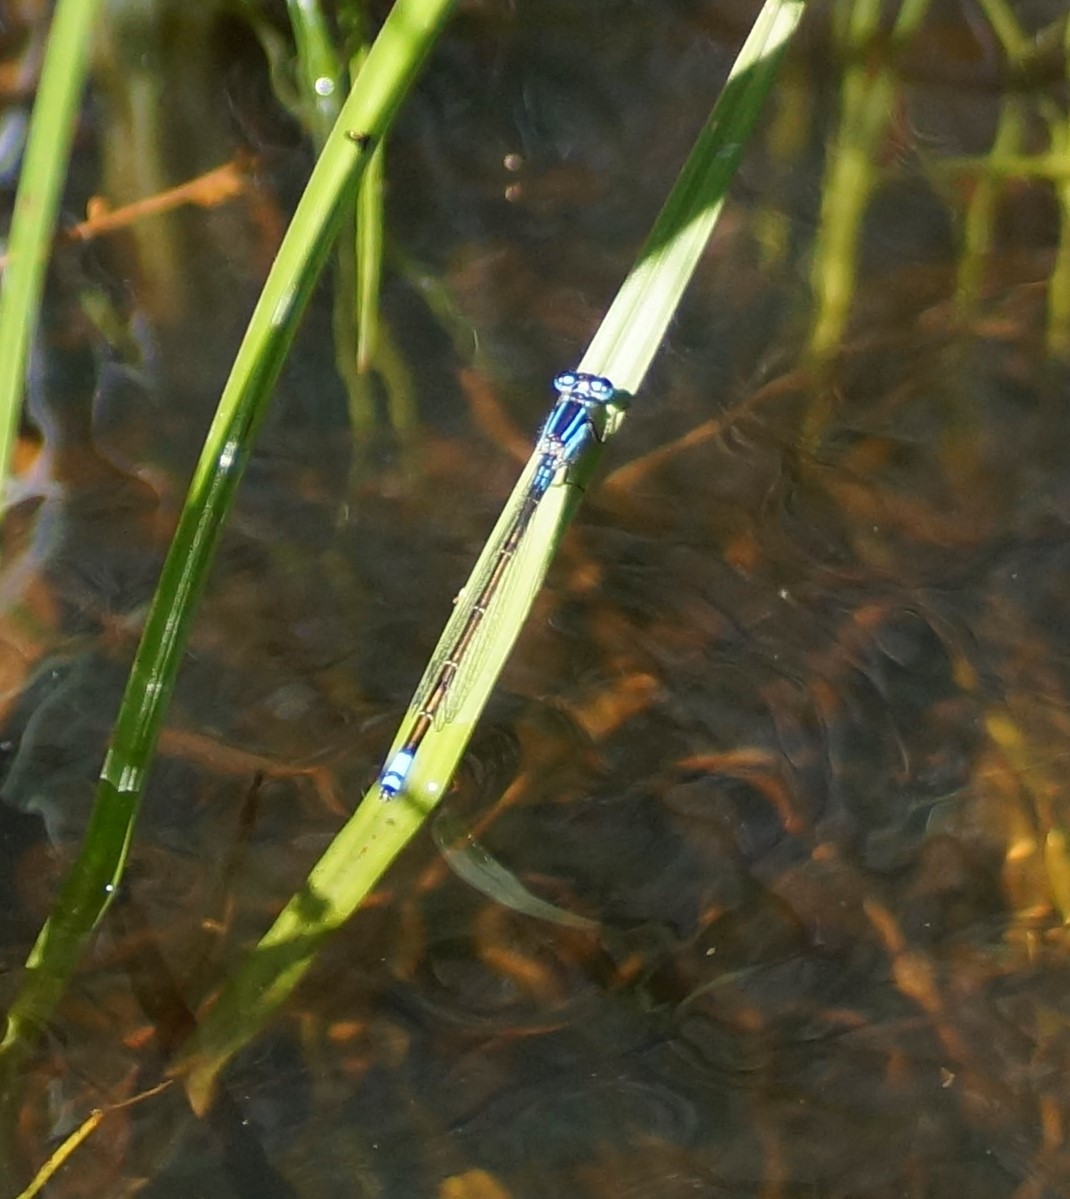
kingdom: Animalia
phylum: Arthropoda
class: Insecta
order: Odonata
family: Coenagrionidae
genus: Ischnura
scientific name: Ischnura heterosticta
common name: Common bluetail
